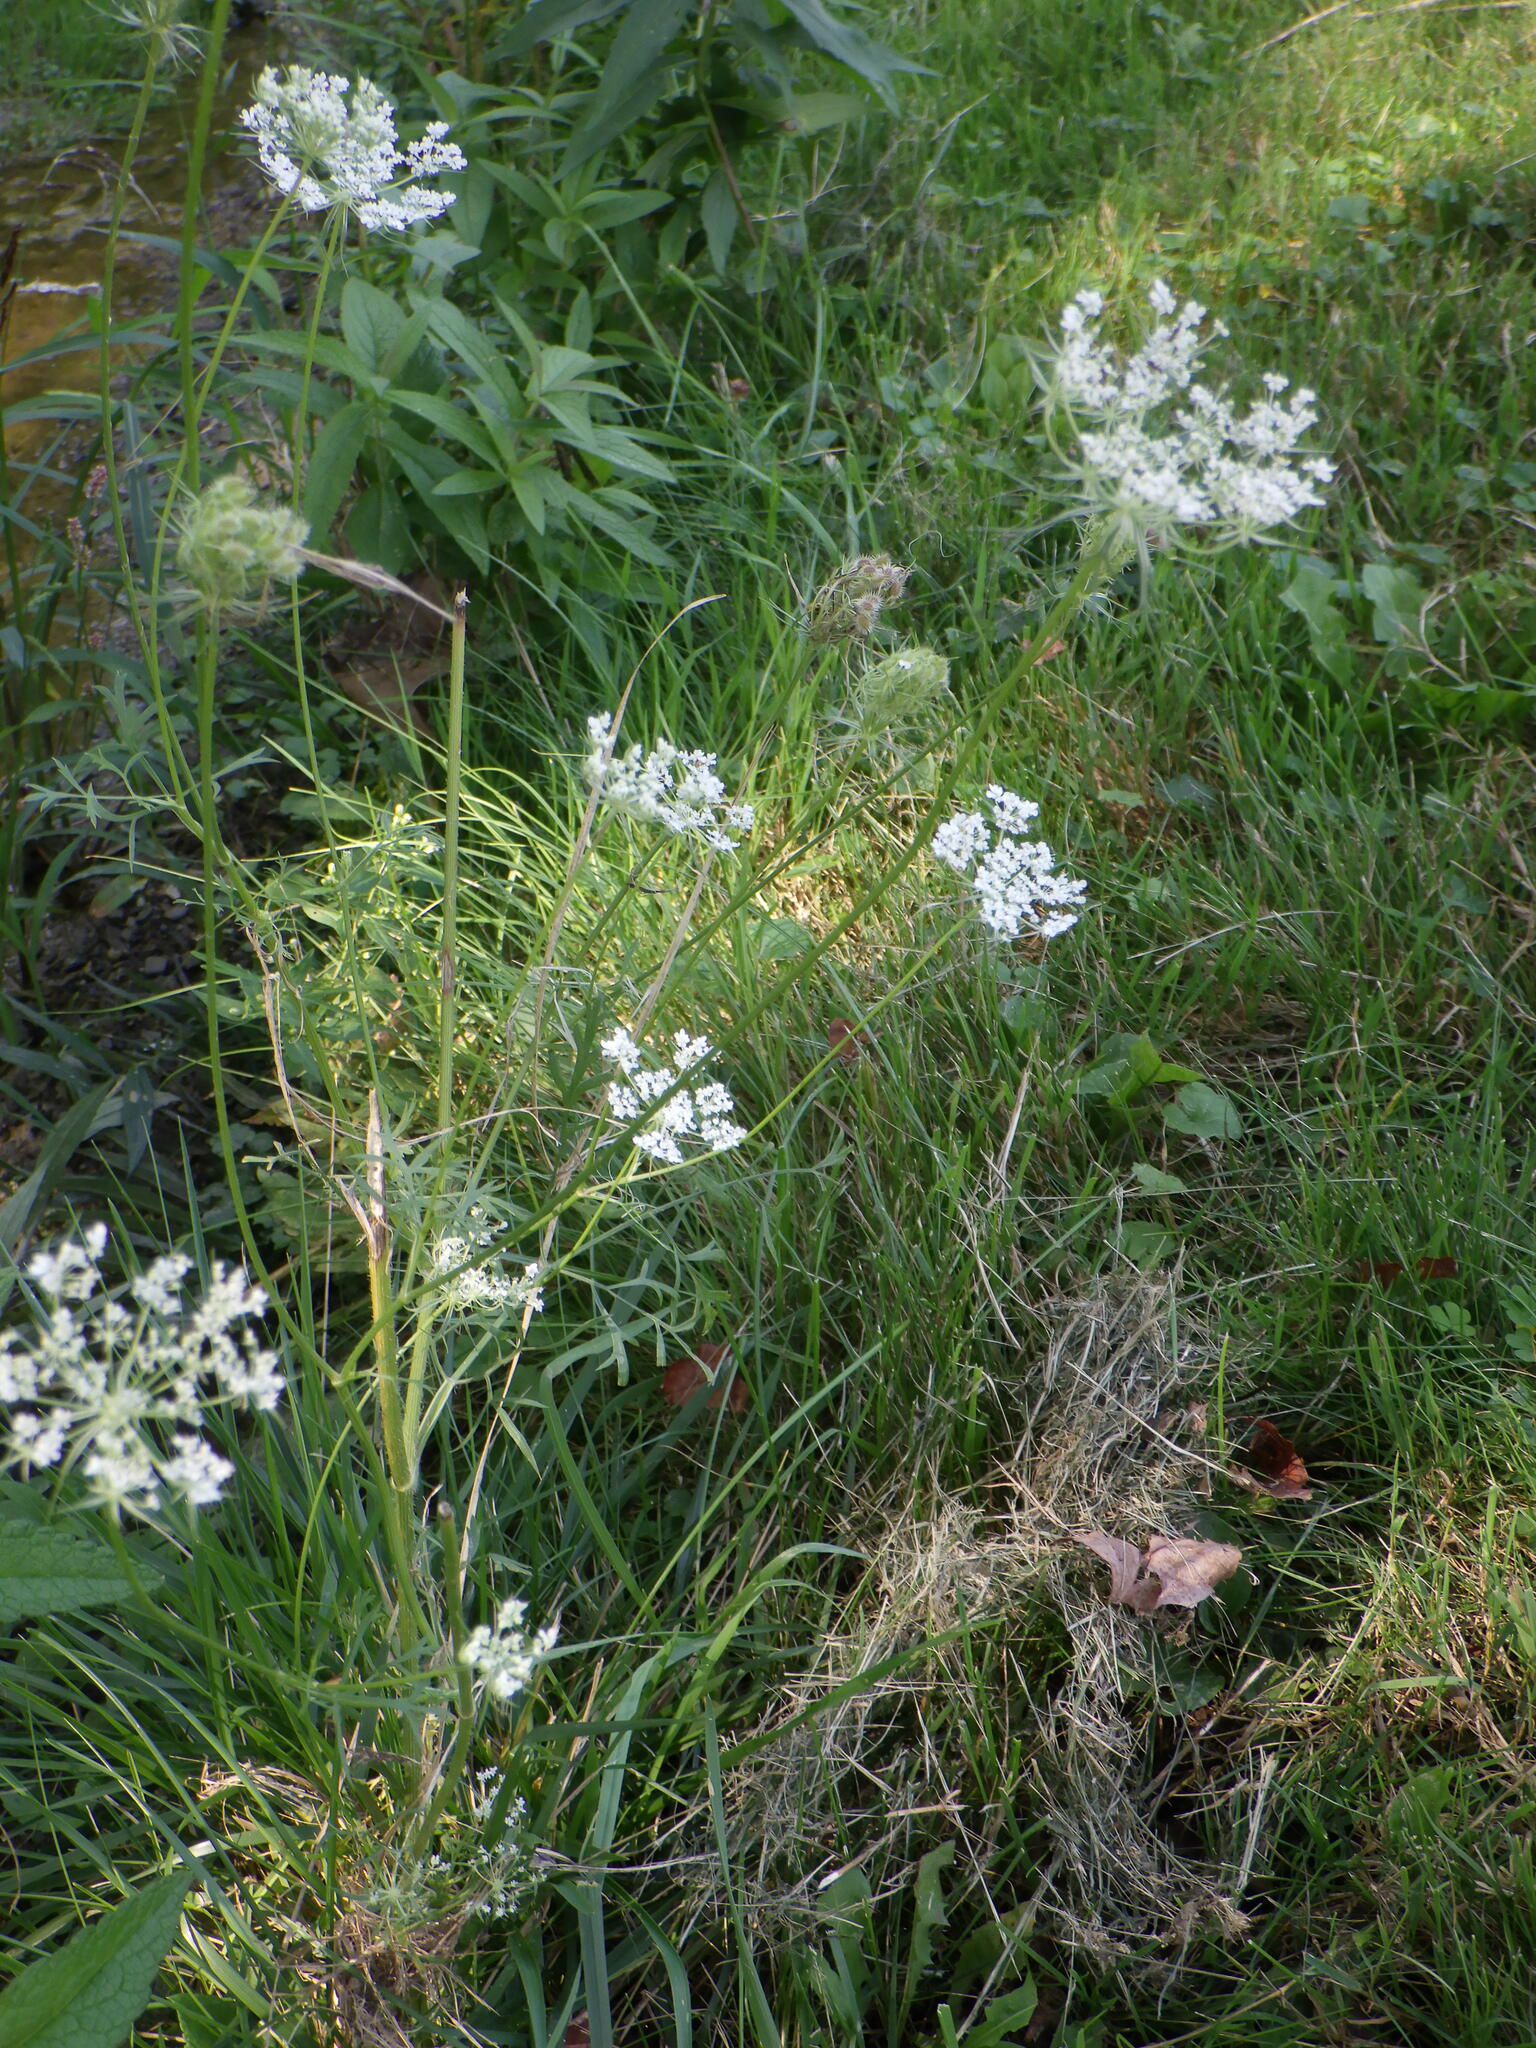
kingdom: Plantae
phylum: Tracheophyta
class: Magnoliopsida
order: Apiales
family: Apiaceae
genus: Daucus
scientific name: Daucus carota
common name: Wild carrot
